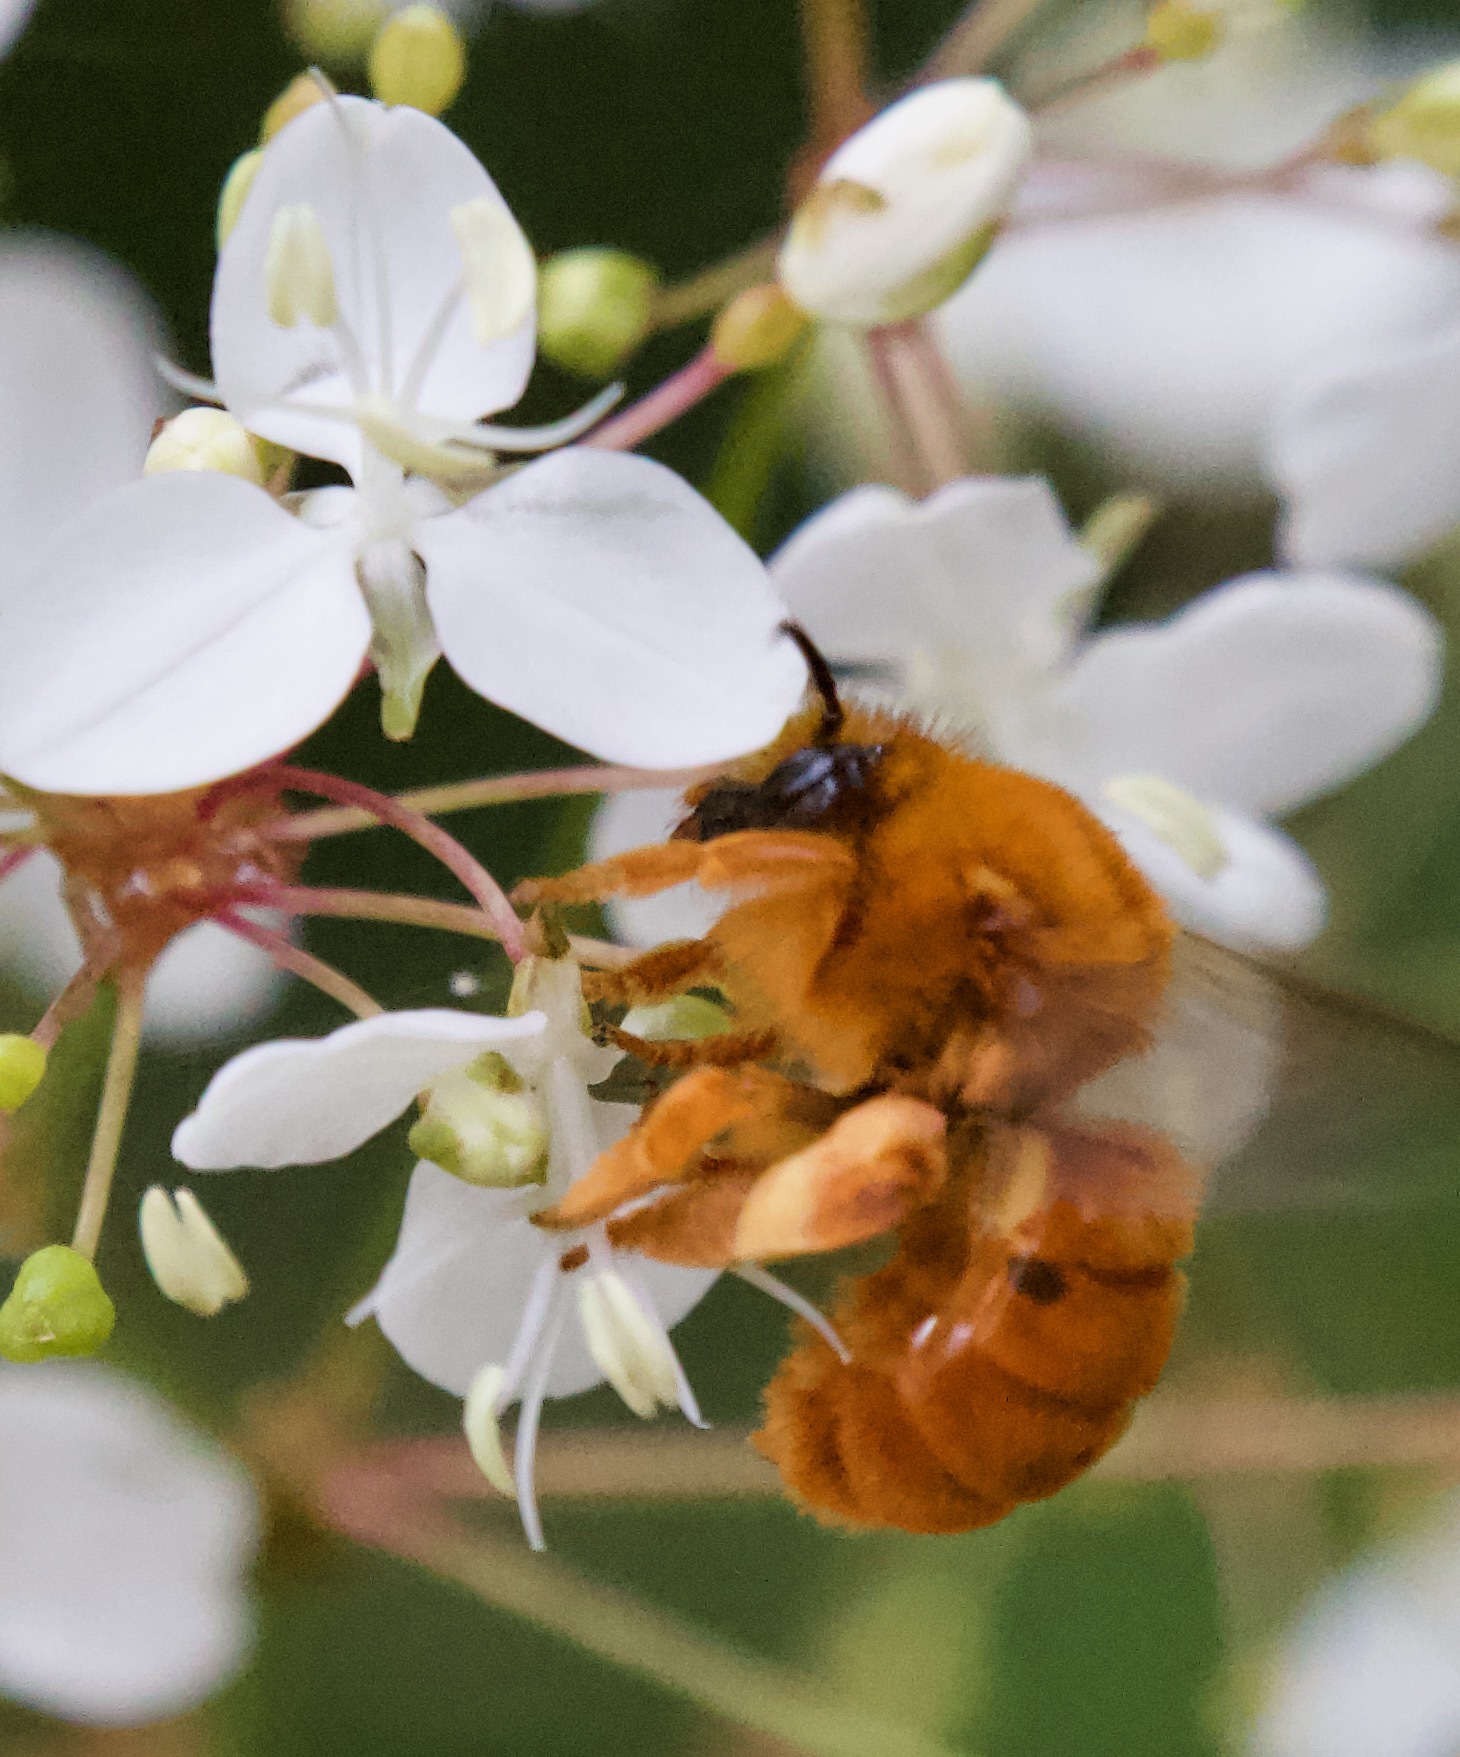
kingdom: Animalia
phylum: Arthropoda
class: Insecta
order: Hymenoptera
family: Colletidae
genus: Diphaglossa
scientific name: Diphaglossa gayi
